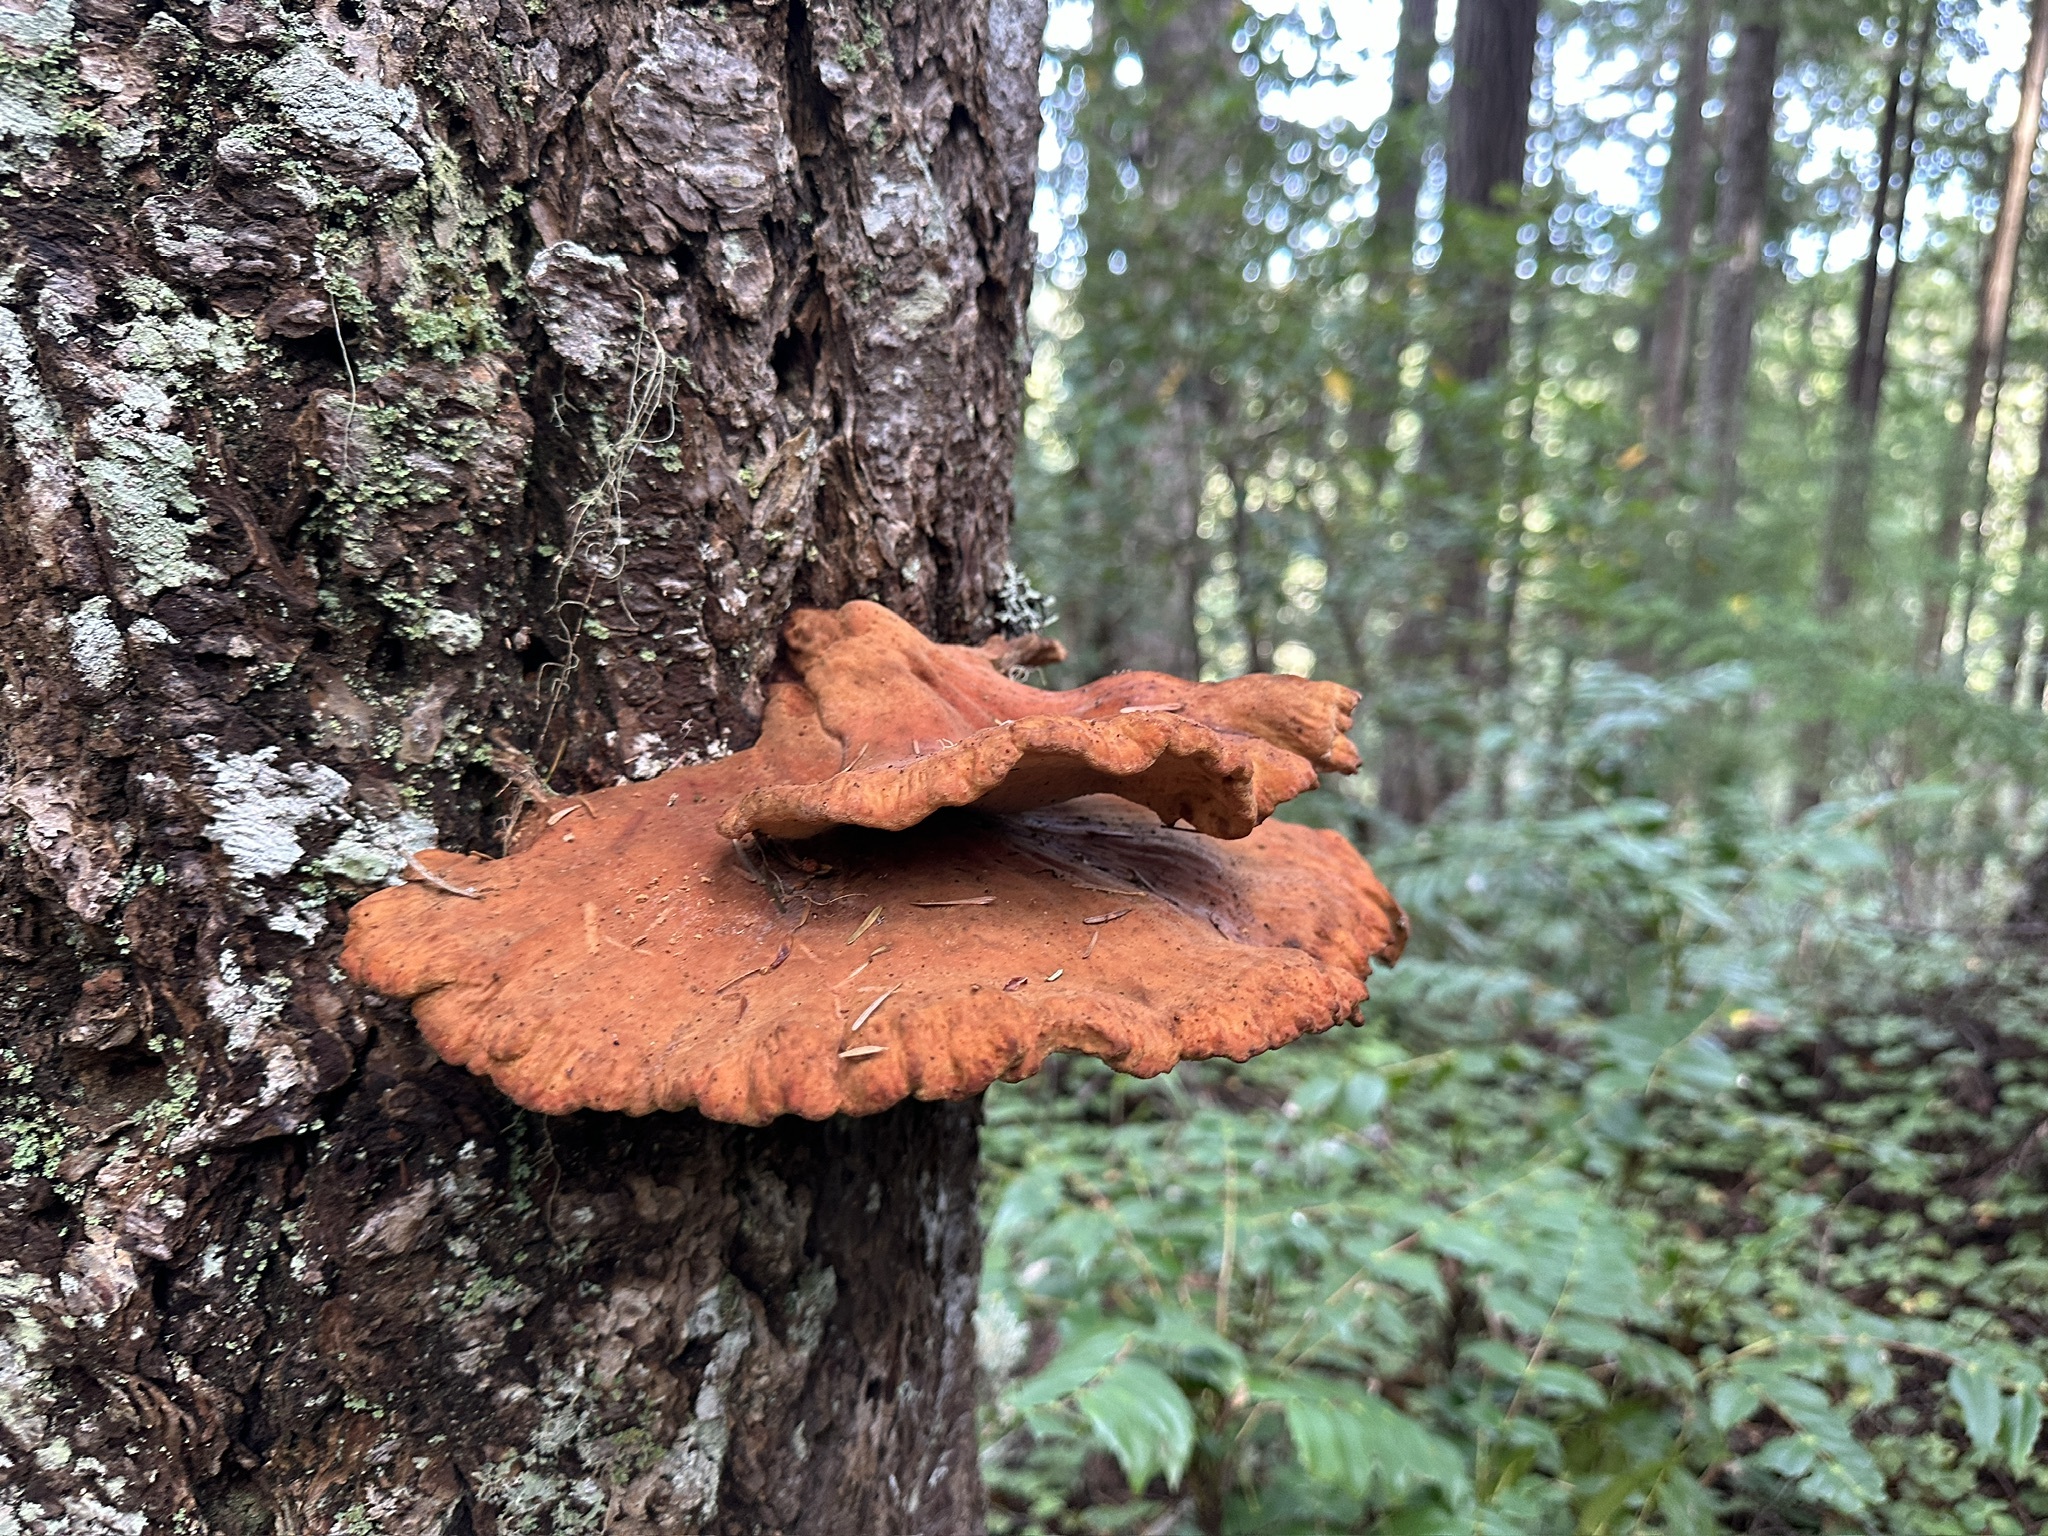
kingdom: Fungi
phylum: Basidiomycota
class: Agaricomycetes
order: Polyporales
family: Laetiporaceae
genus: Laetiporus
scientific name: Laetiporus conifericola
